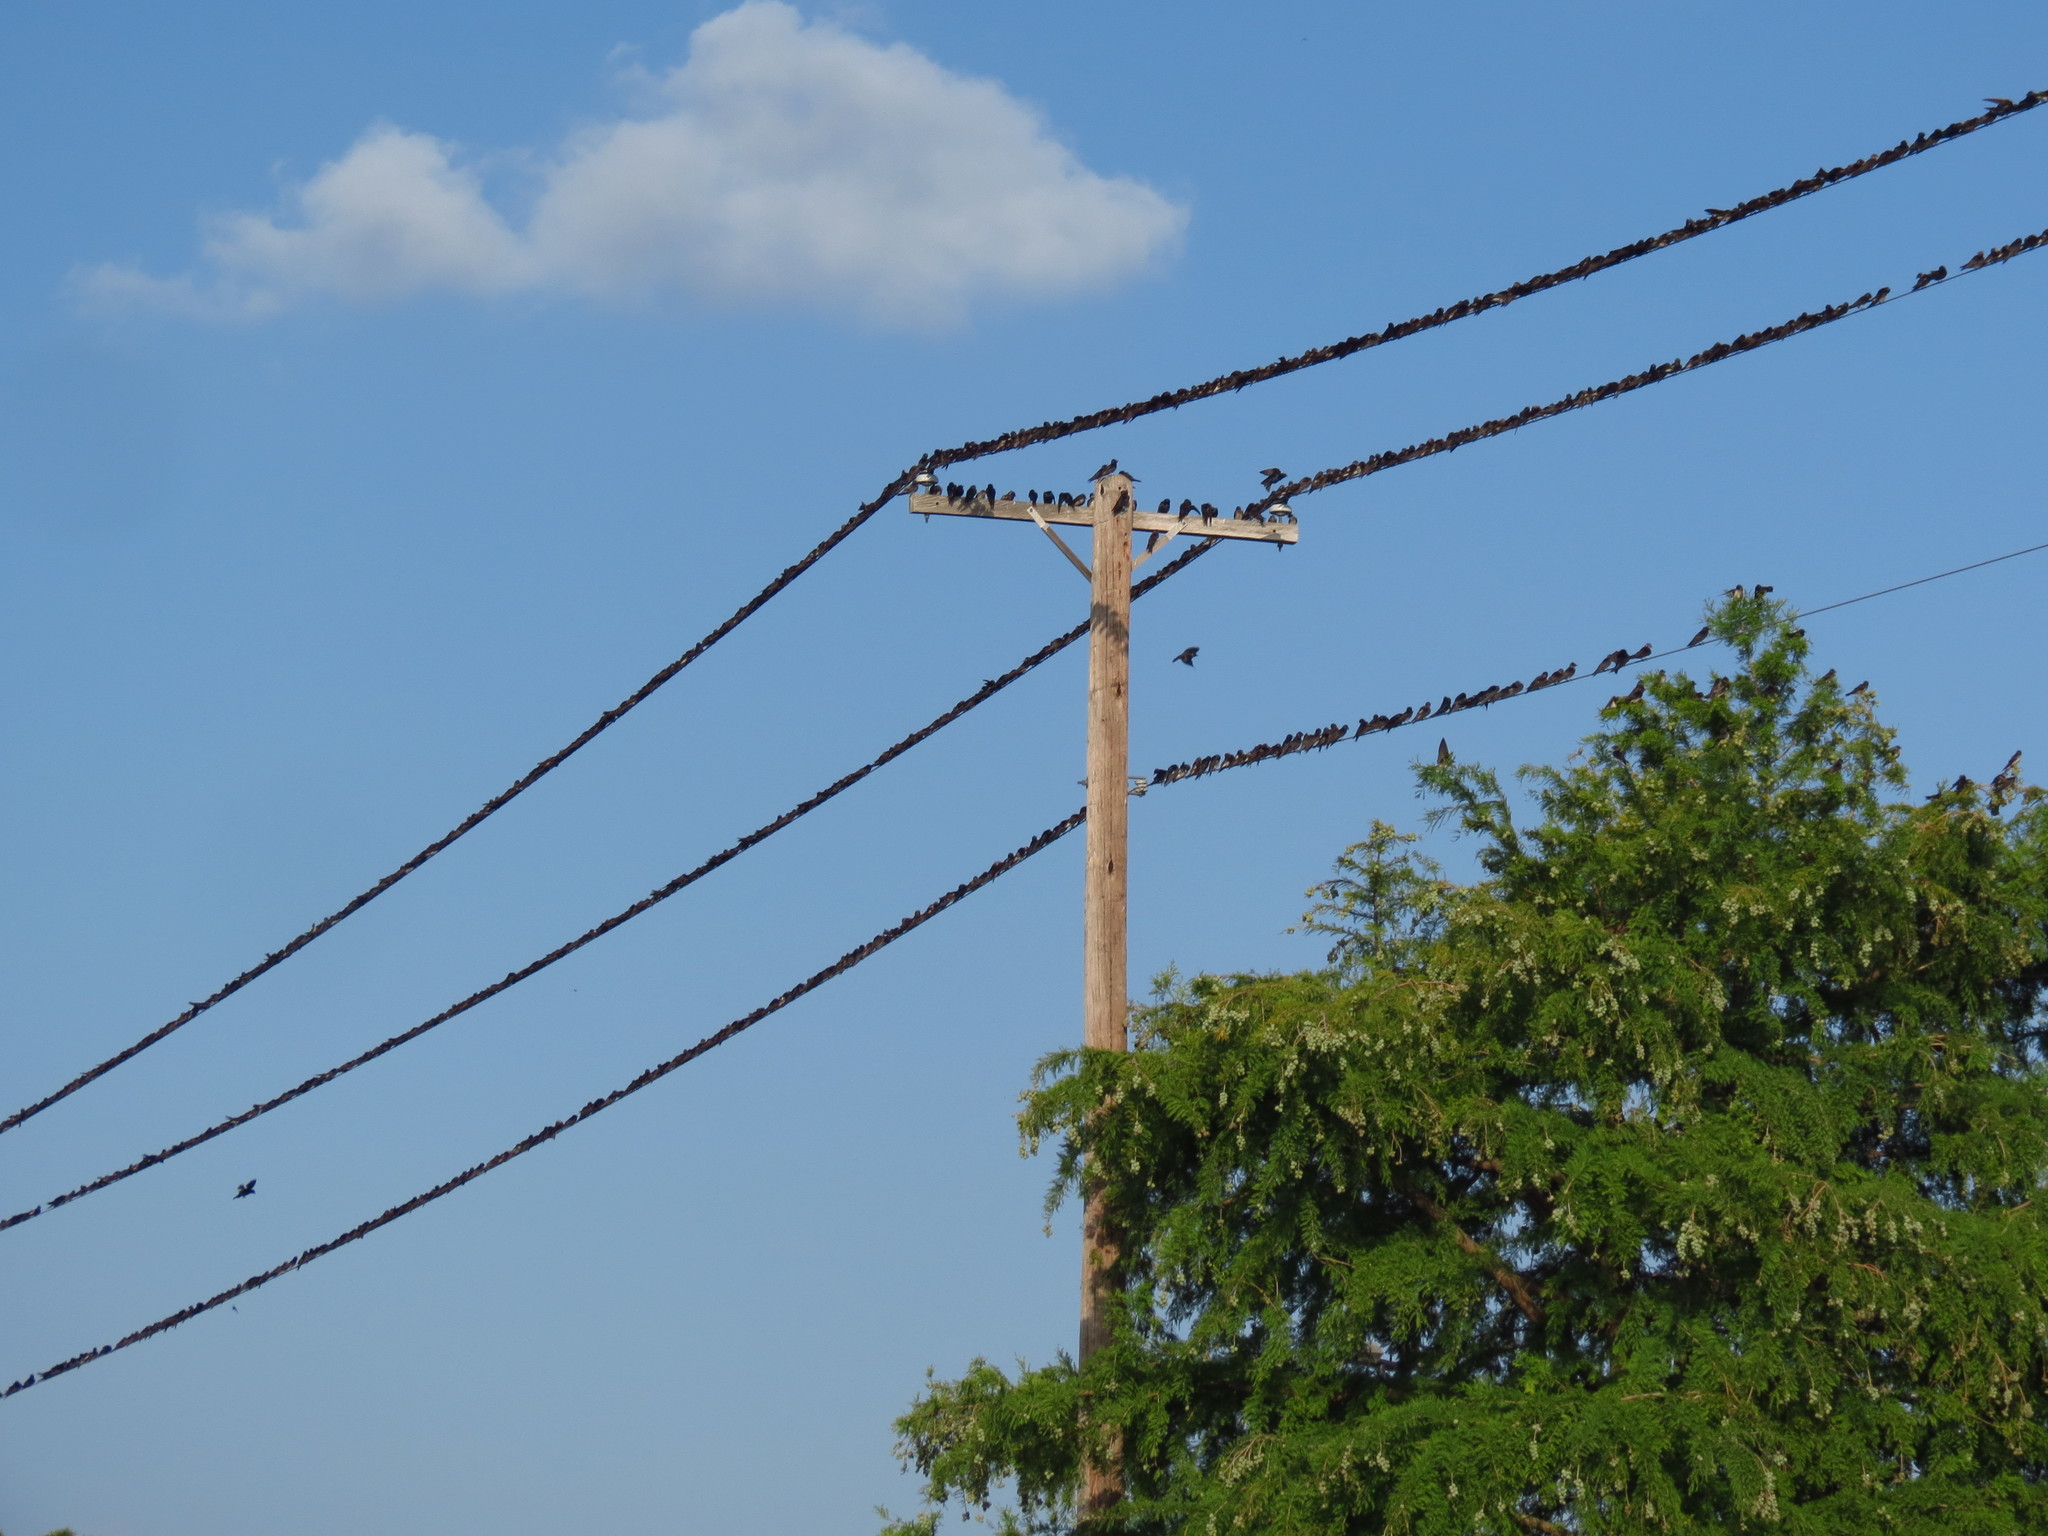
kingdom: Animalia
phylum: Chordata
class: Aves
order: Passeriformes
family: Hirundinidae
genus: Progne
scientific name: Progne subis
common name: Purple martin
